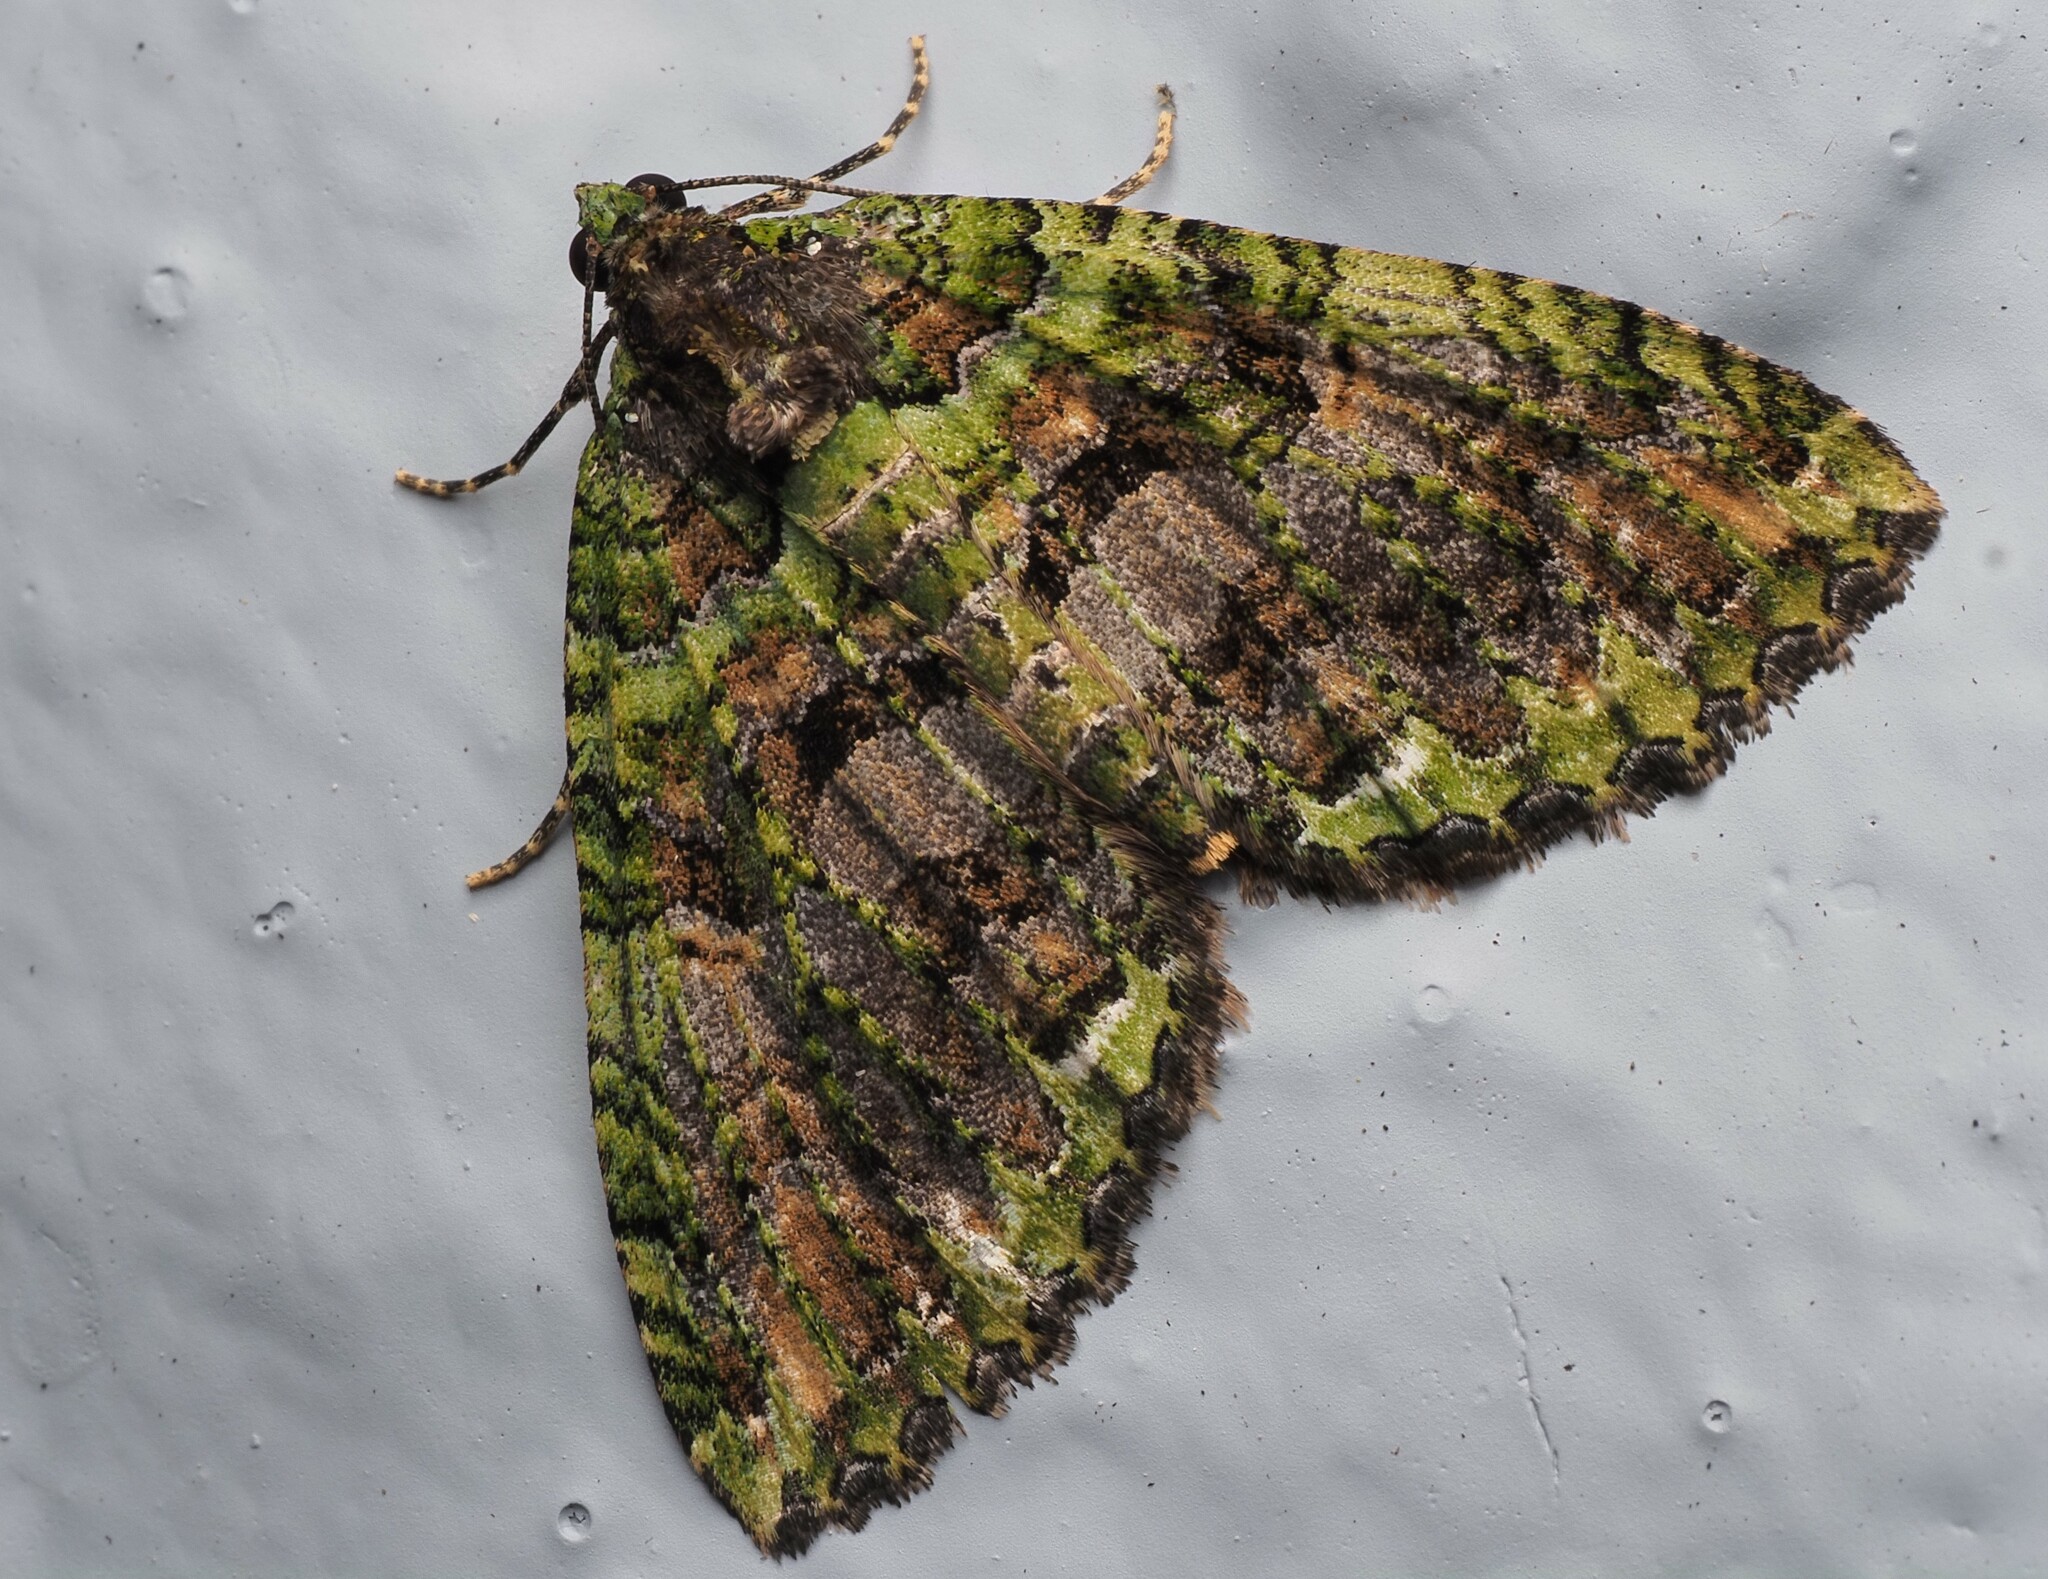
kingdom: Animalia
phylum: Arthropoda
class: Insecta
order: Lepidoptera
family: Geometridae
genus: Austrocidaria
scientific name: Austrocidaria similata
